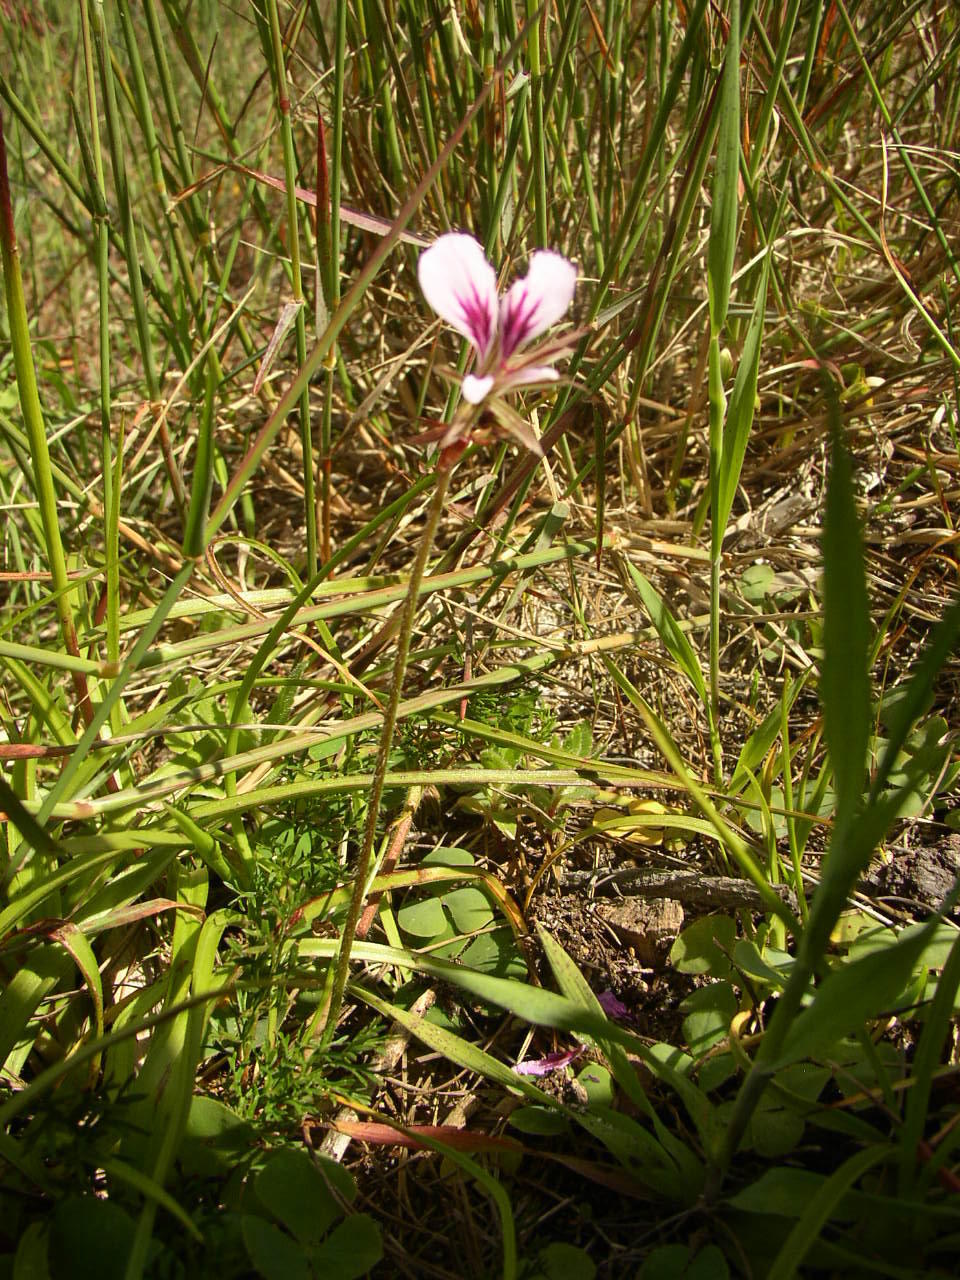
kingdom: Plantae
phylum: Tracheophyta
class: Magnoliopsida
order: Geraniales
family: Geraniaceae
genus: Pelargonium
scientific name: Pelargonium myrrhifolium
